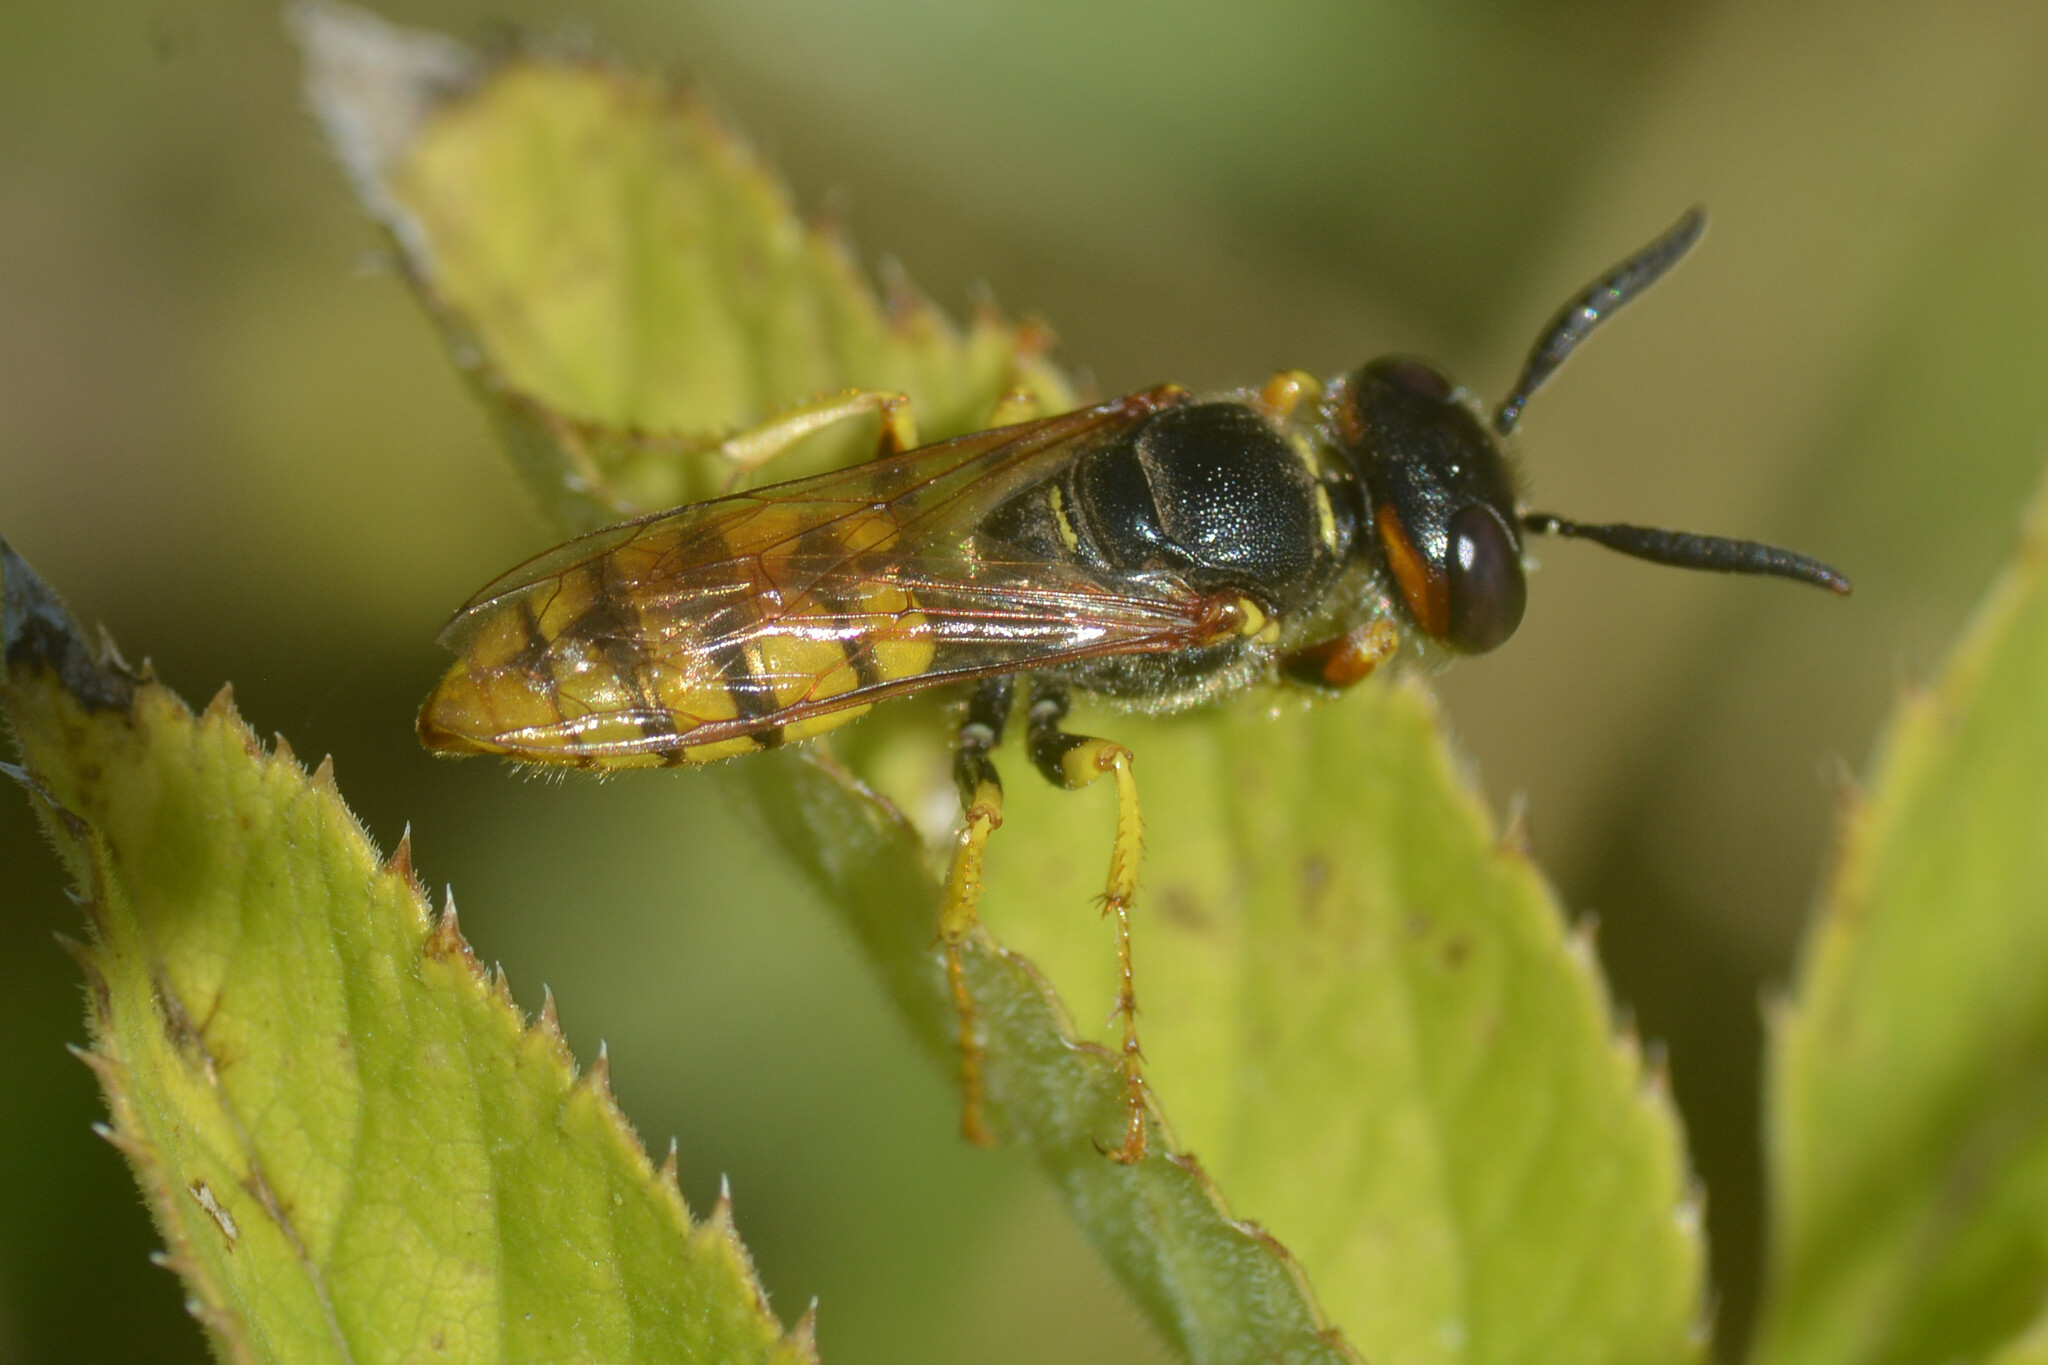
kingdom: Animalia
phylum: Arthropoda
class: Insecta
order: Hymenoptera
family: Crabronidae
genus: Philanthus
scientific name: Philanthus triangulum
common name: Bee wolf
